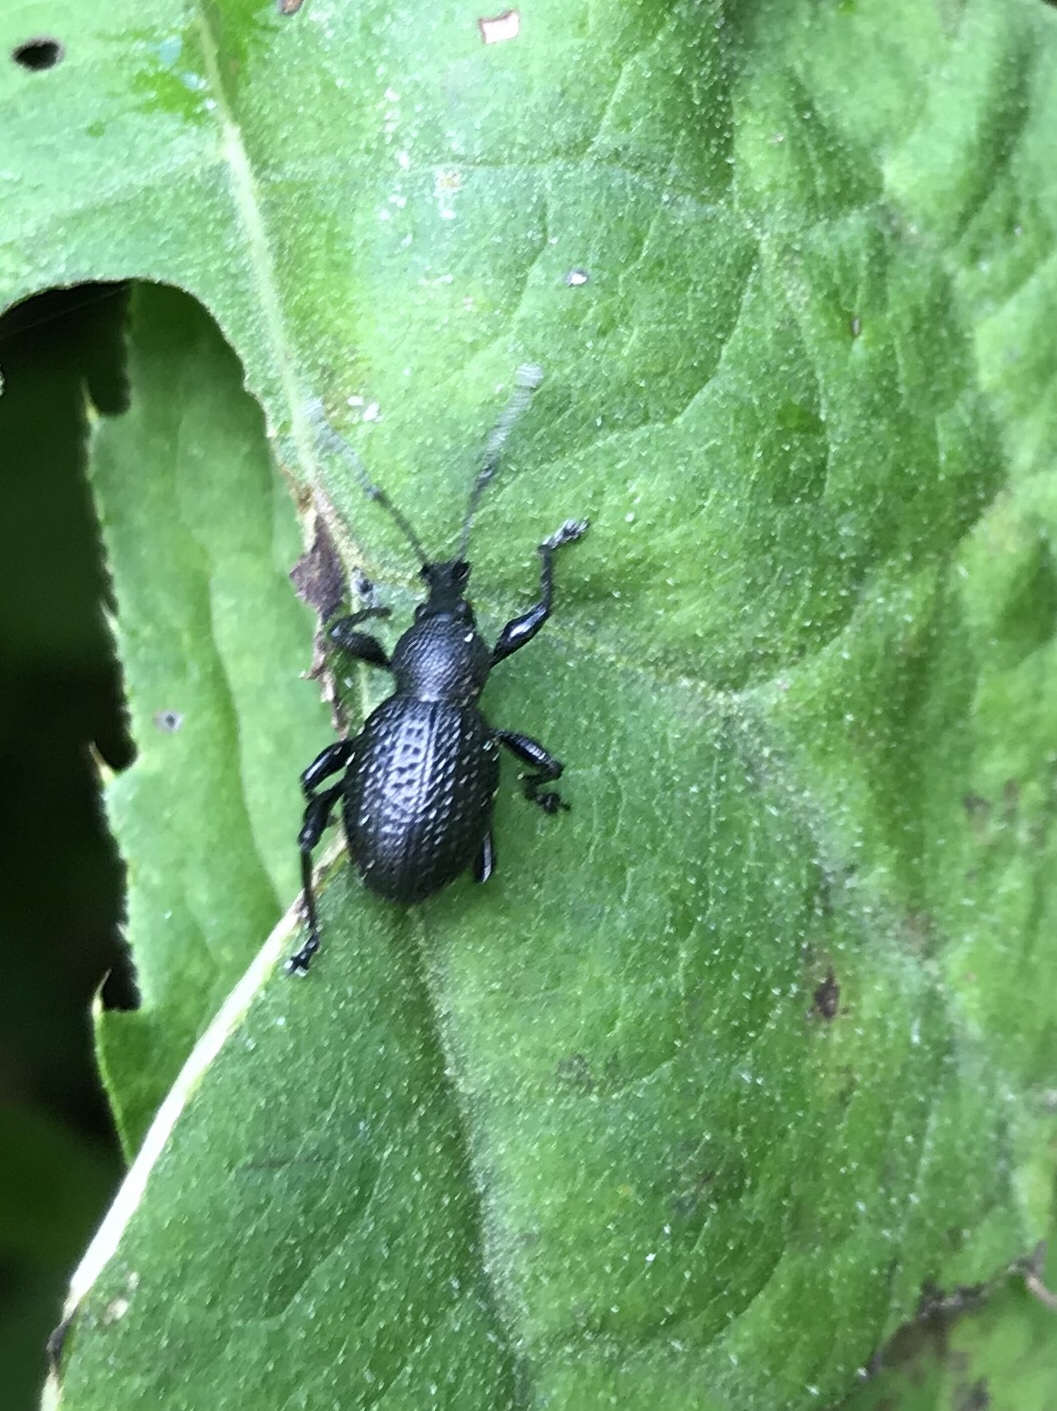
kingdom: Animalia
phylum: Arthropoda
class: Insecta
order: Coleoptera
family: Curculionidae
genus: Otiorhynchus
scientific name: Otiorhynchus gemmatus
